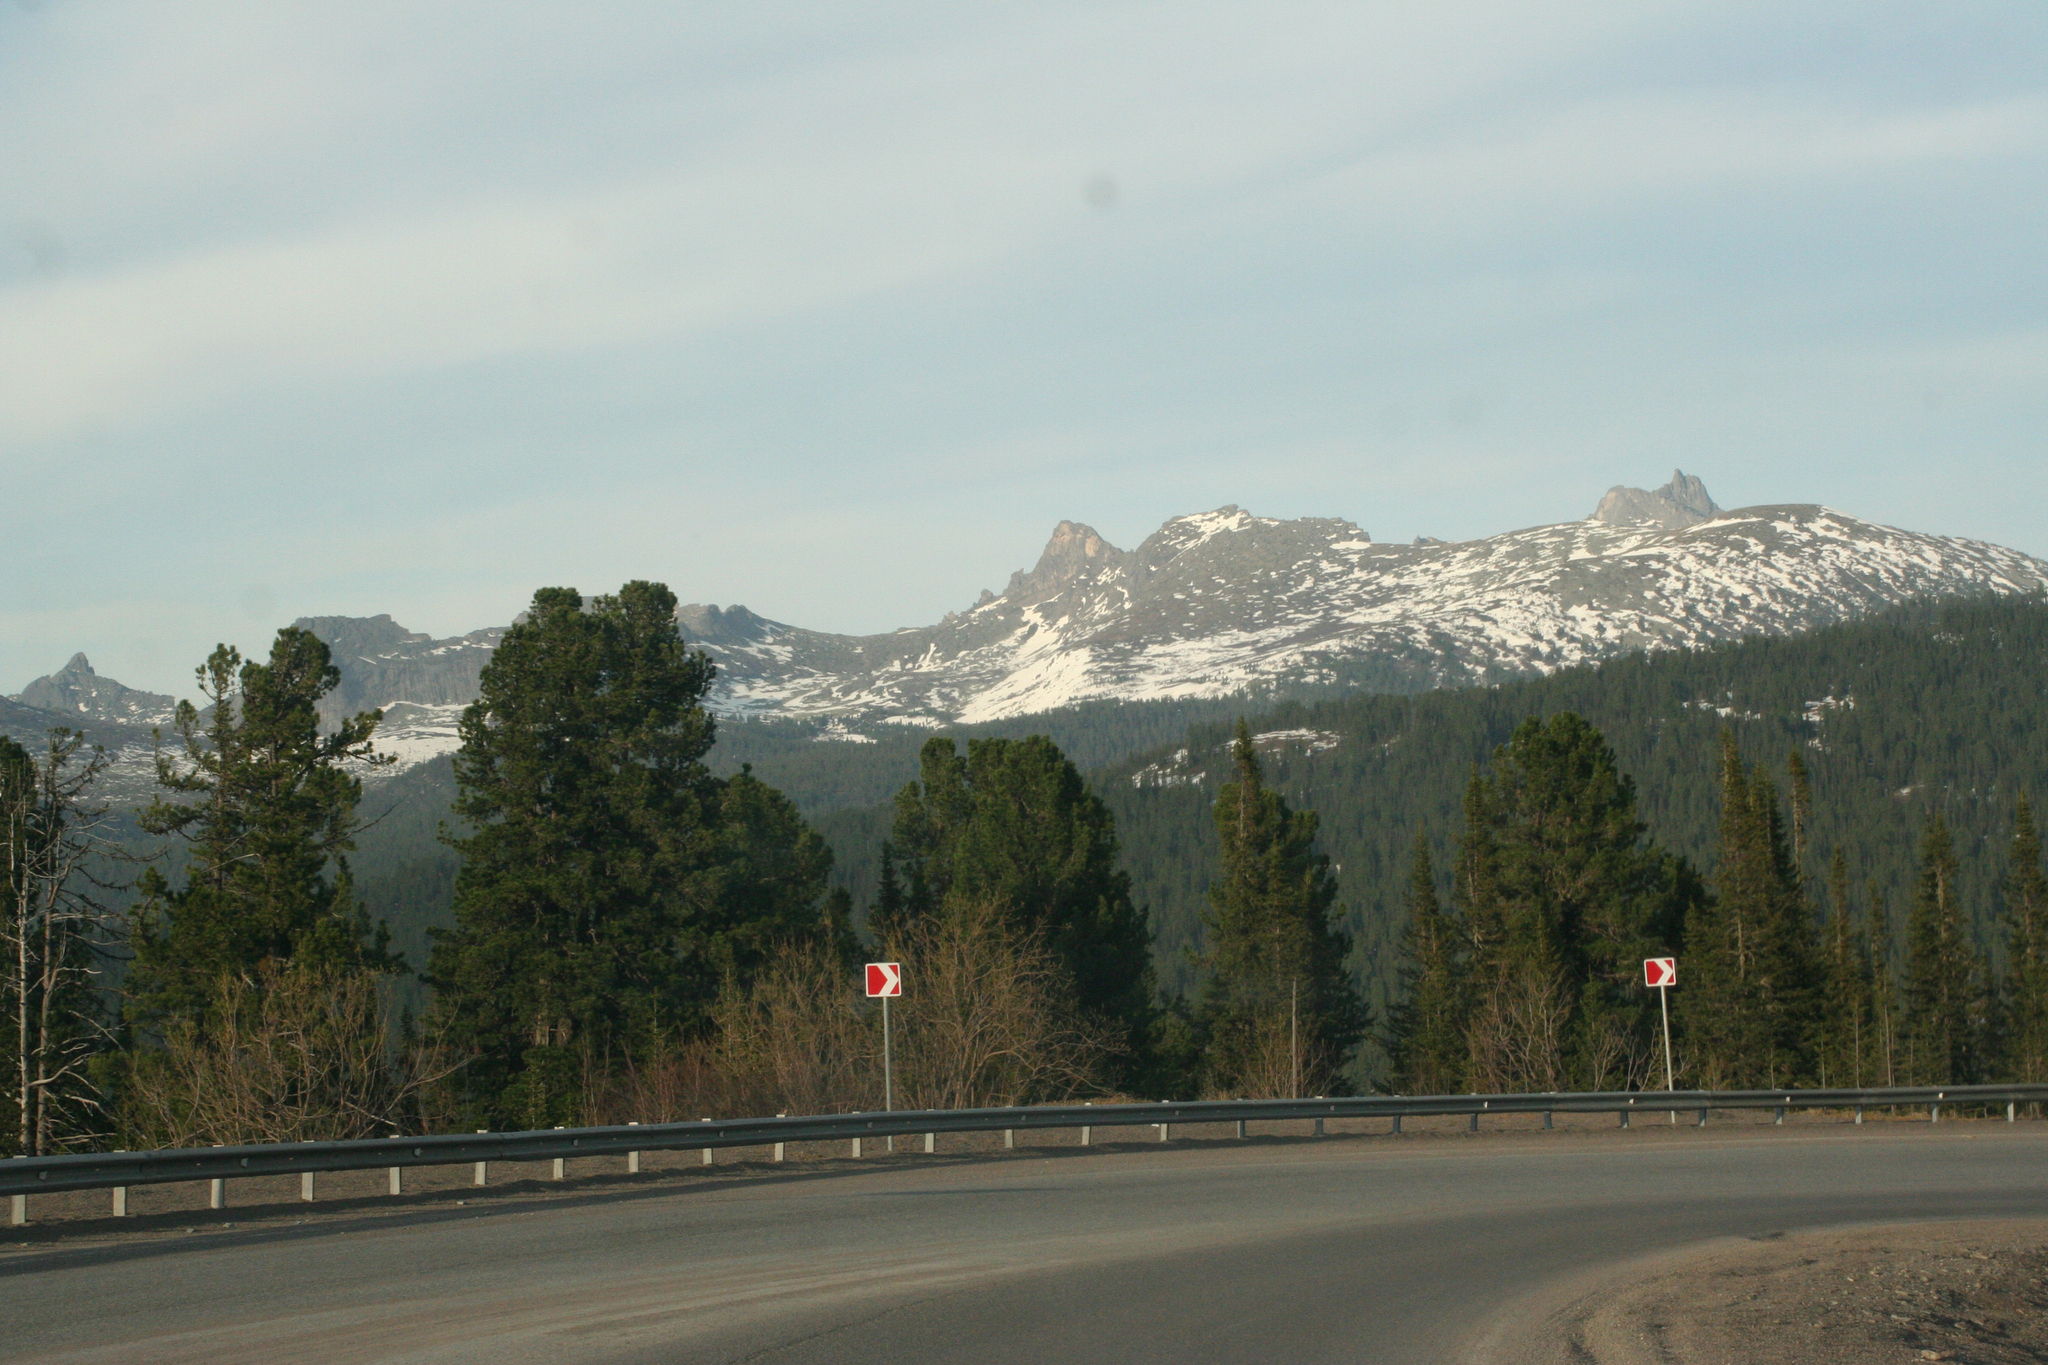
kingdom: Plantae
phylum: Tracheophyta
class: Pinopsida
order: Pinales
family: Pinaceae
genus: Pinus
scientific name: Pinus sibirica
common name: Siberian pine
